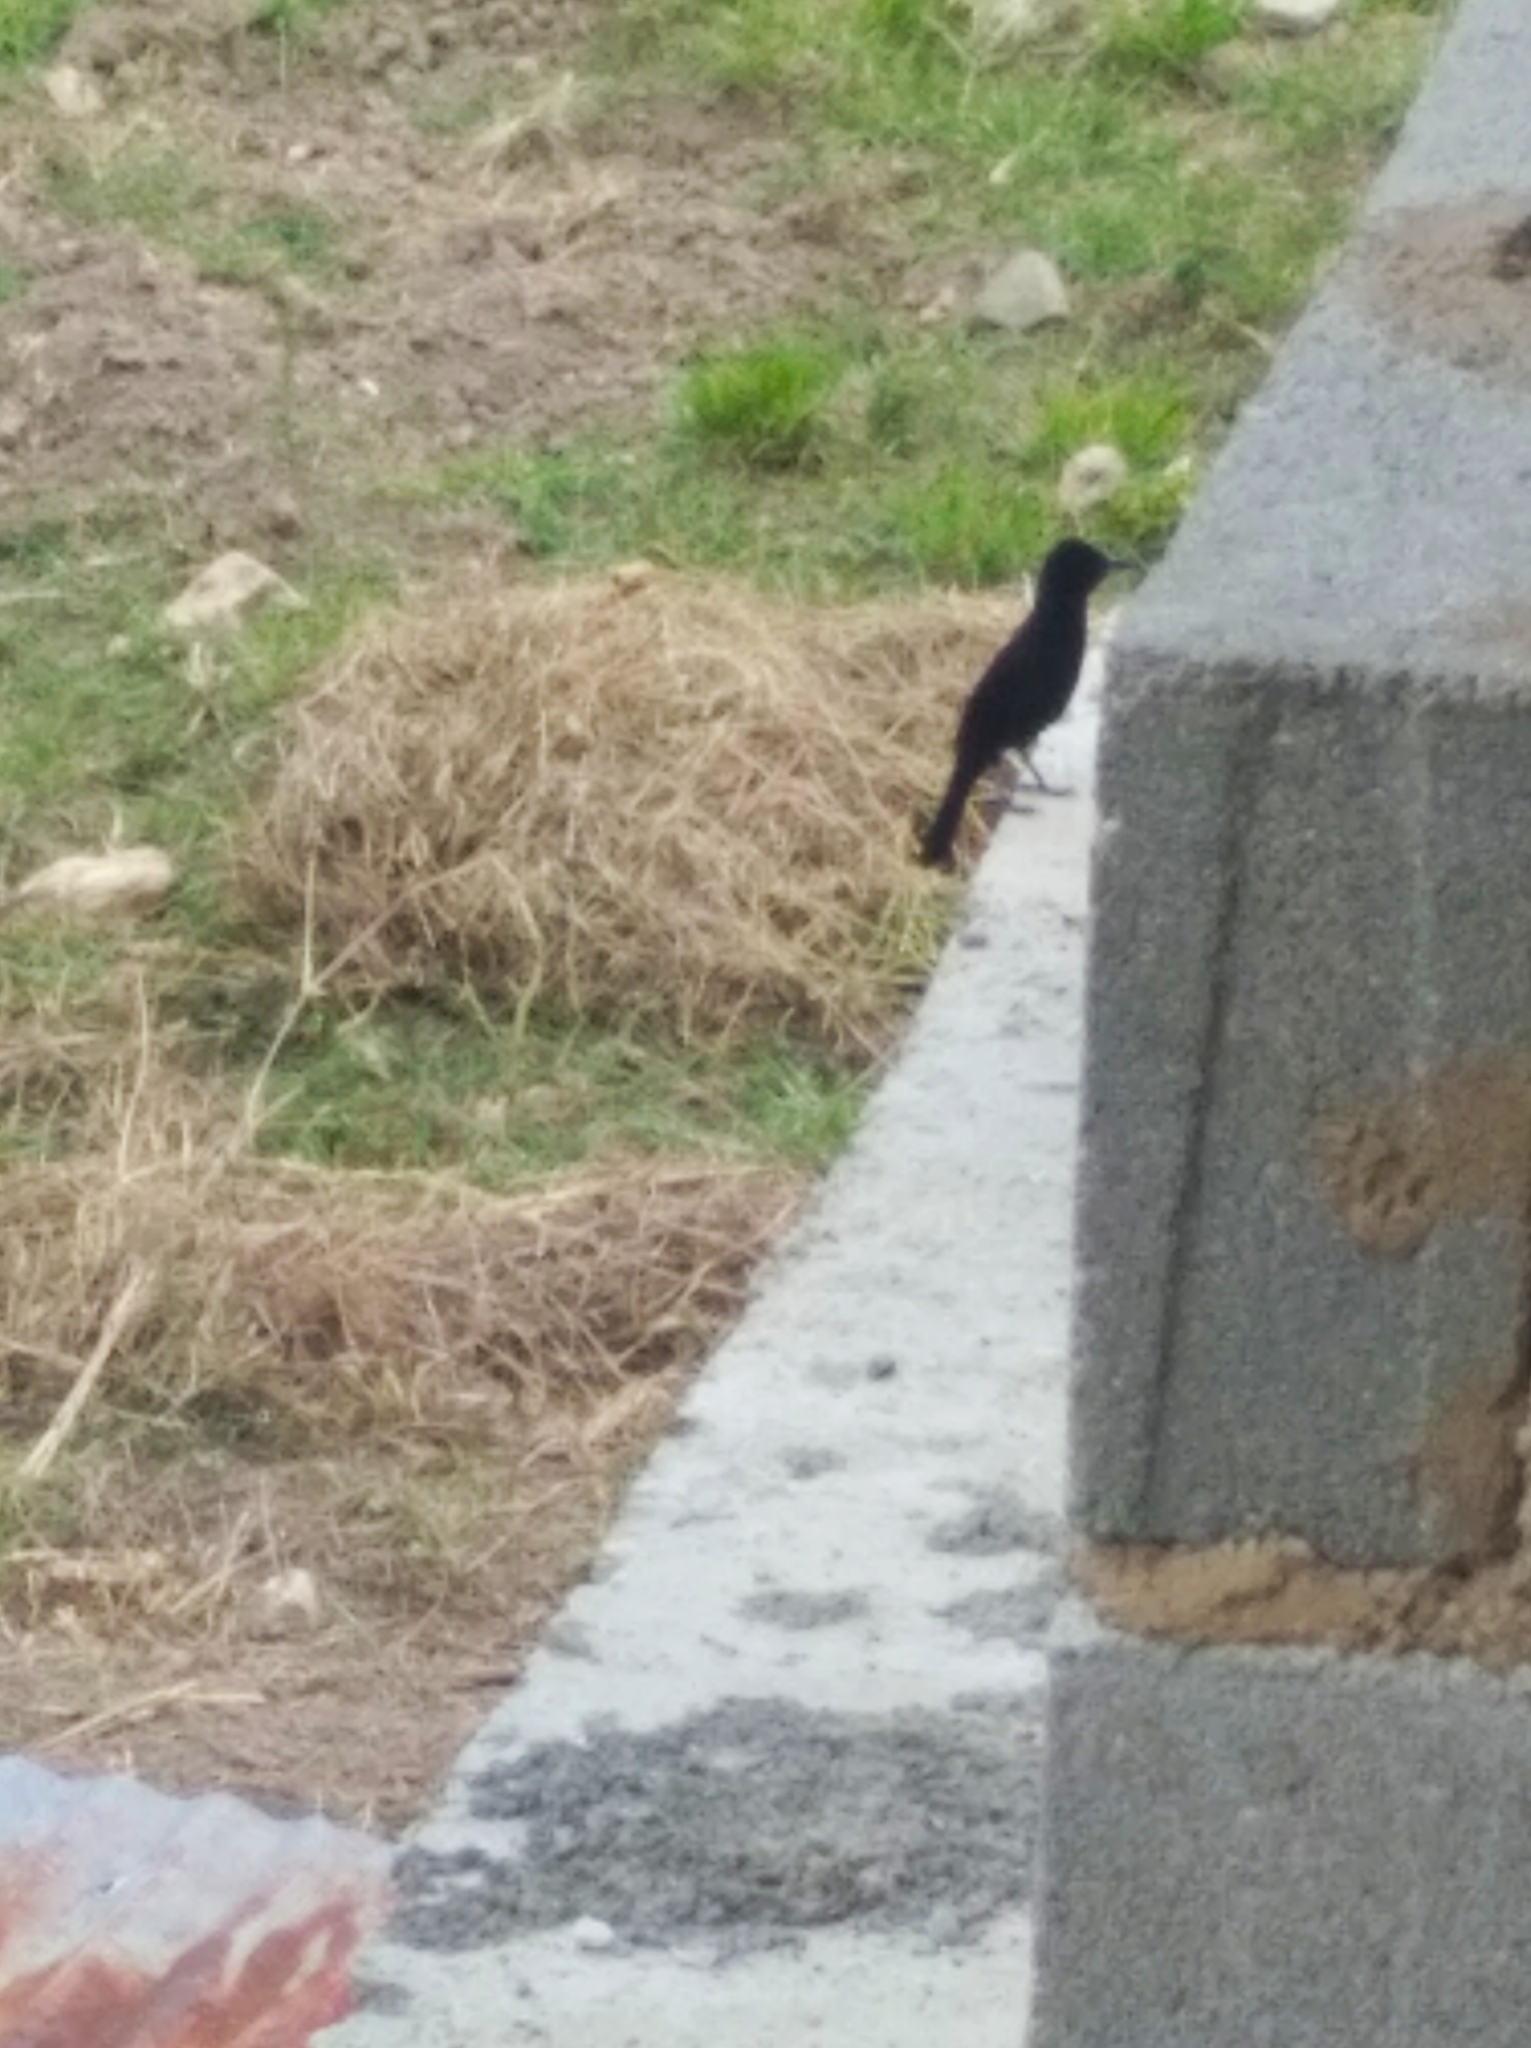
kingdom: Animalia
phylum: Chordata
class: Aves
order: Passeriformes
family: Thraupidae
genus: Tachyphonus
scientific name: Tachyphonus rufus
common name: White-lined tanager
